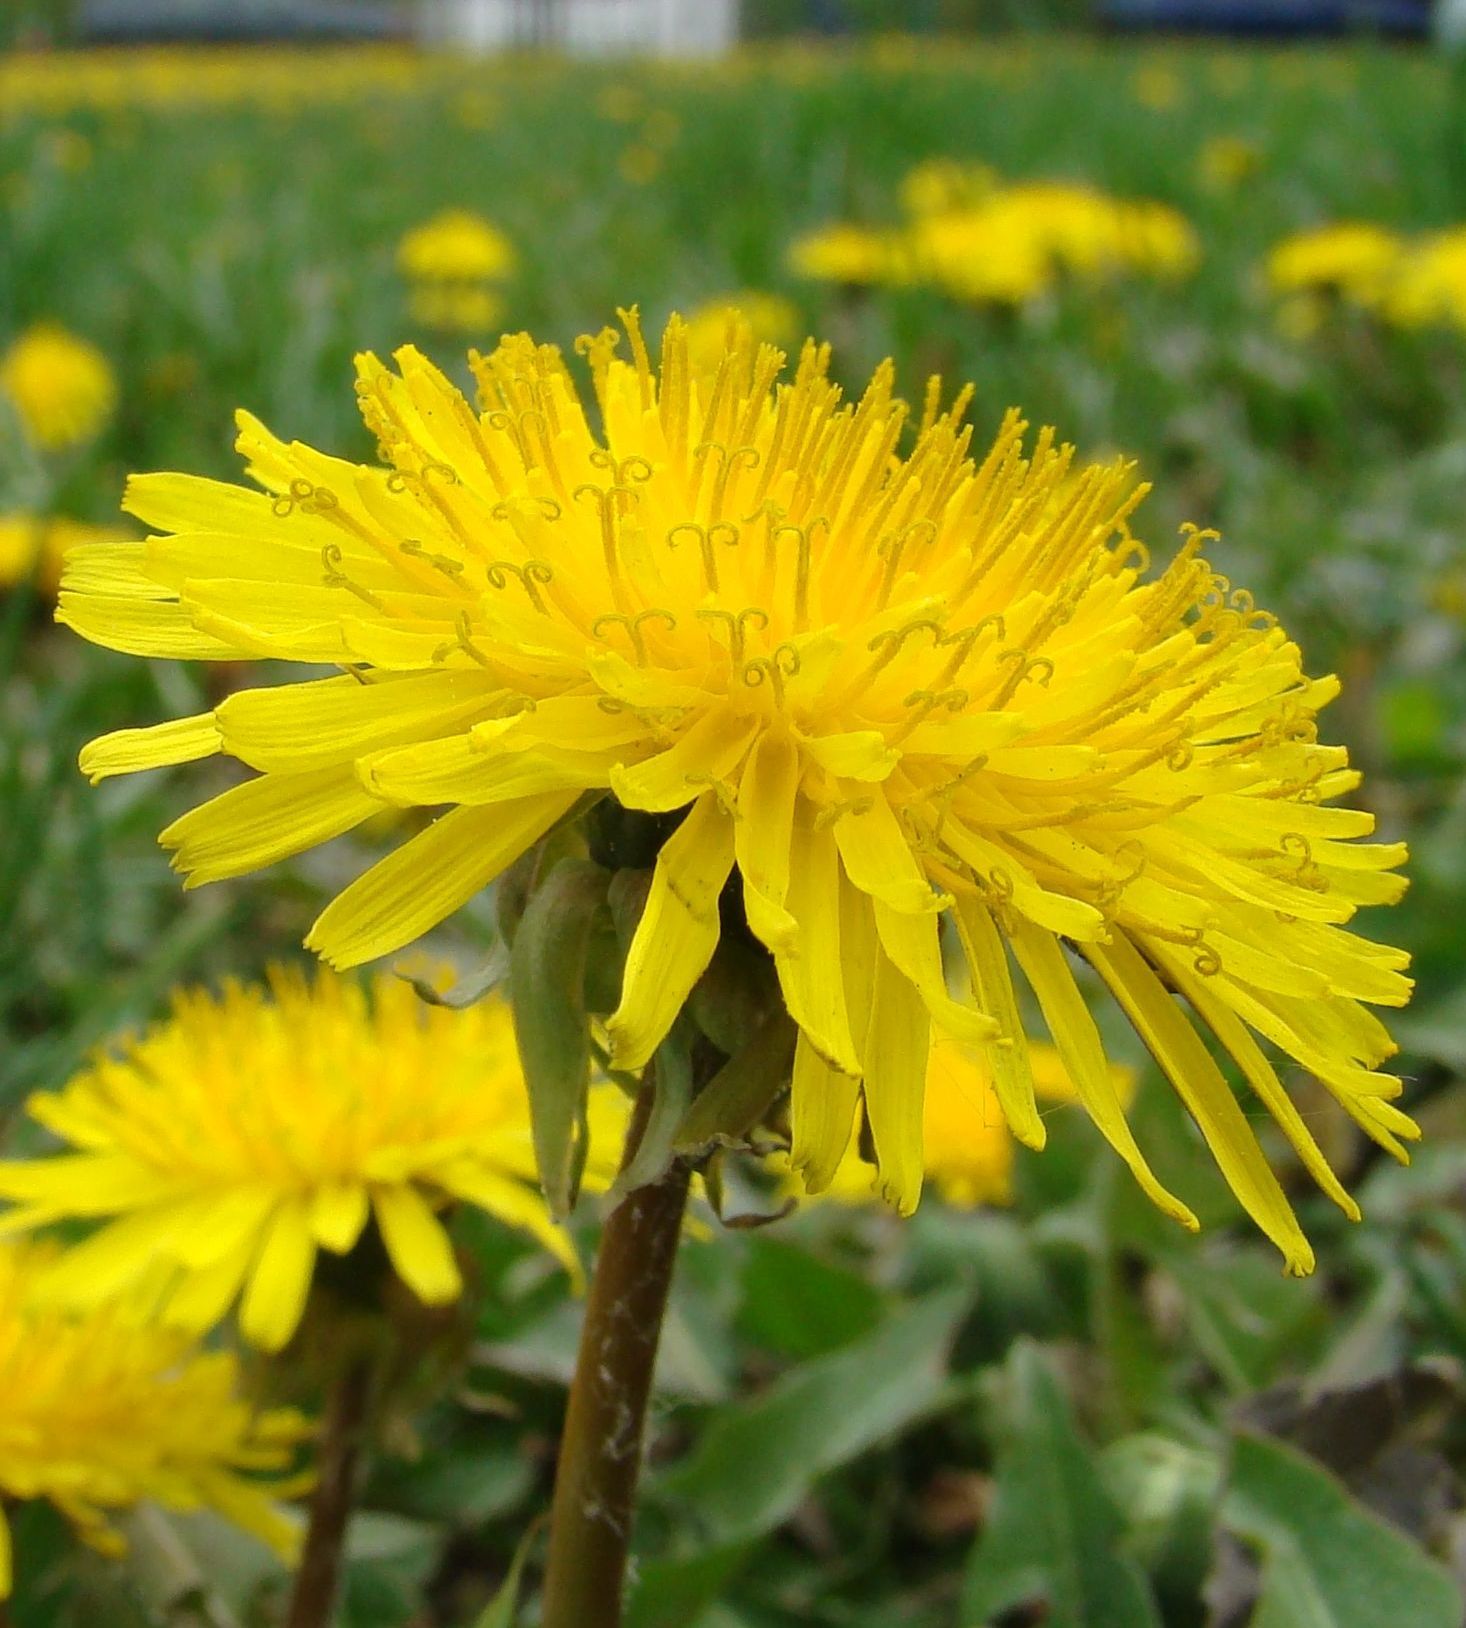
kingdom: Plantae
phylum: Tracheophyta
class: Magnoliopsida
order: Asterales
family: Asteraceae
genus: Taraxacum
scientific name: Taraxacum officinale
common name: Common dandelion
